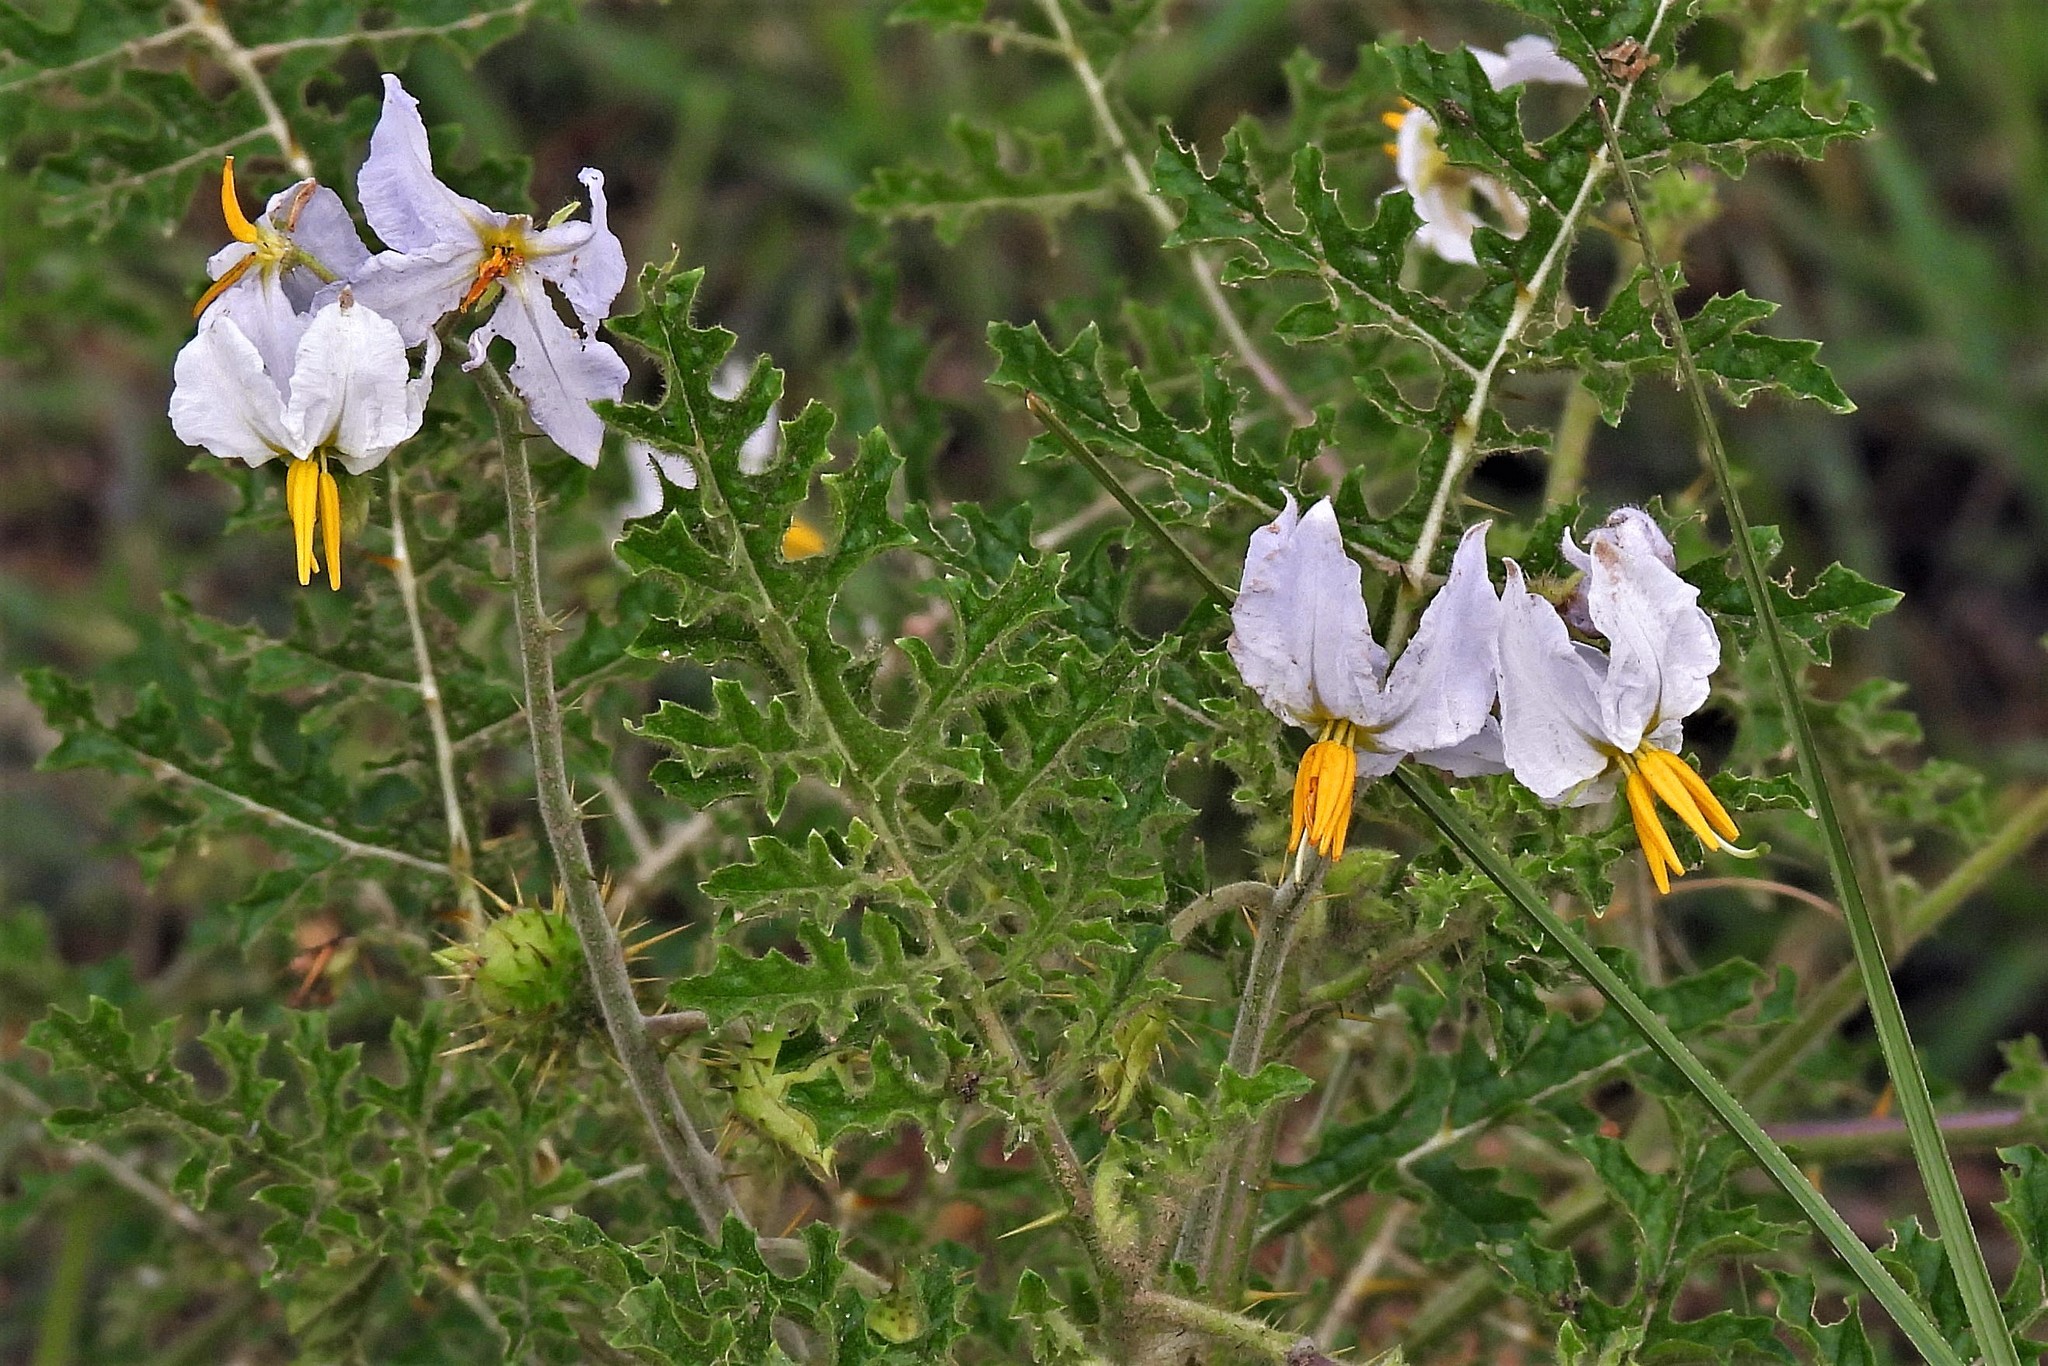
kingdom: Plantae
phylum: Tracheophyta
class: Magnoliopsida
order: Solanales
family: Solanaceae
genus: Solanum
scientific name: Solanum sisymbriifolium
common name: Red buffalo-bur
